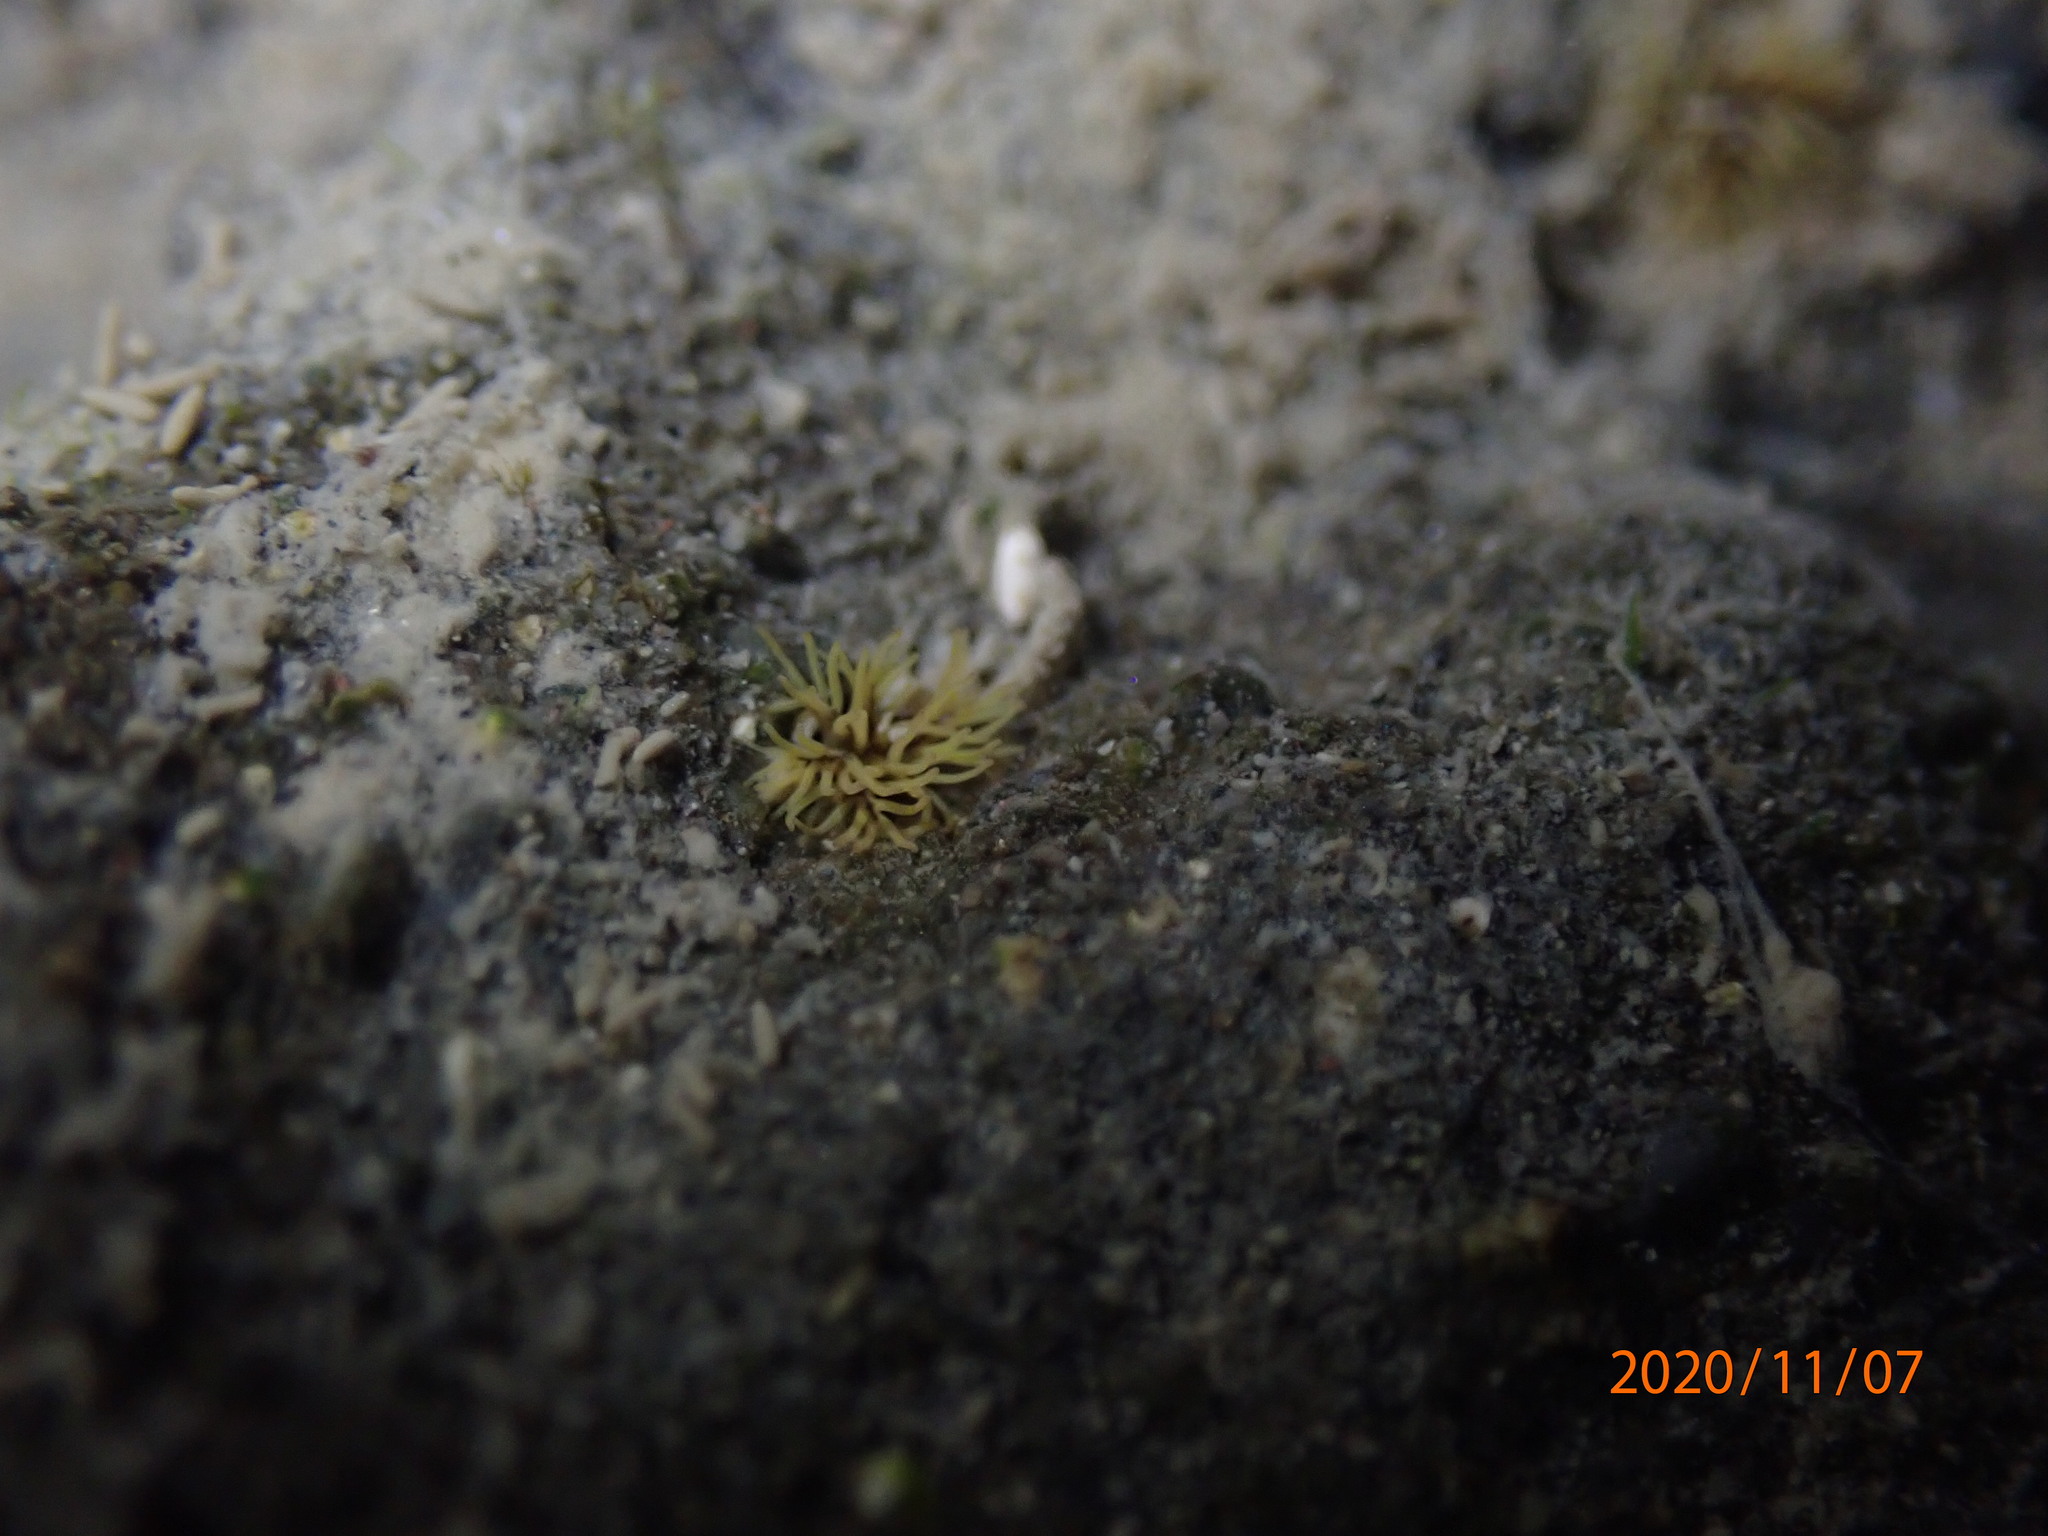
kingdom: Animalia
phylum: Cnidaria
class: Anthozoa
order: Actiniaria
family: Diadumenidae
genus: Diadumene
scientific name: Diadumene lineata
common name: Orange-striped anemone
